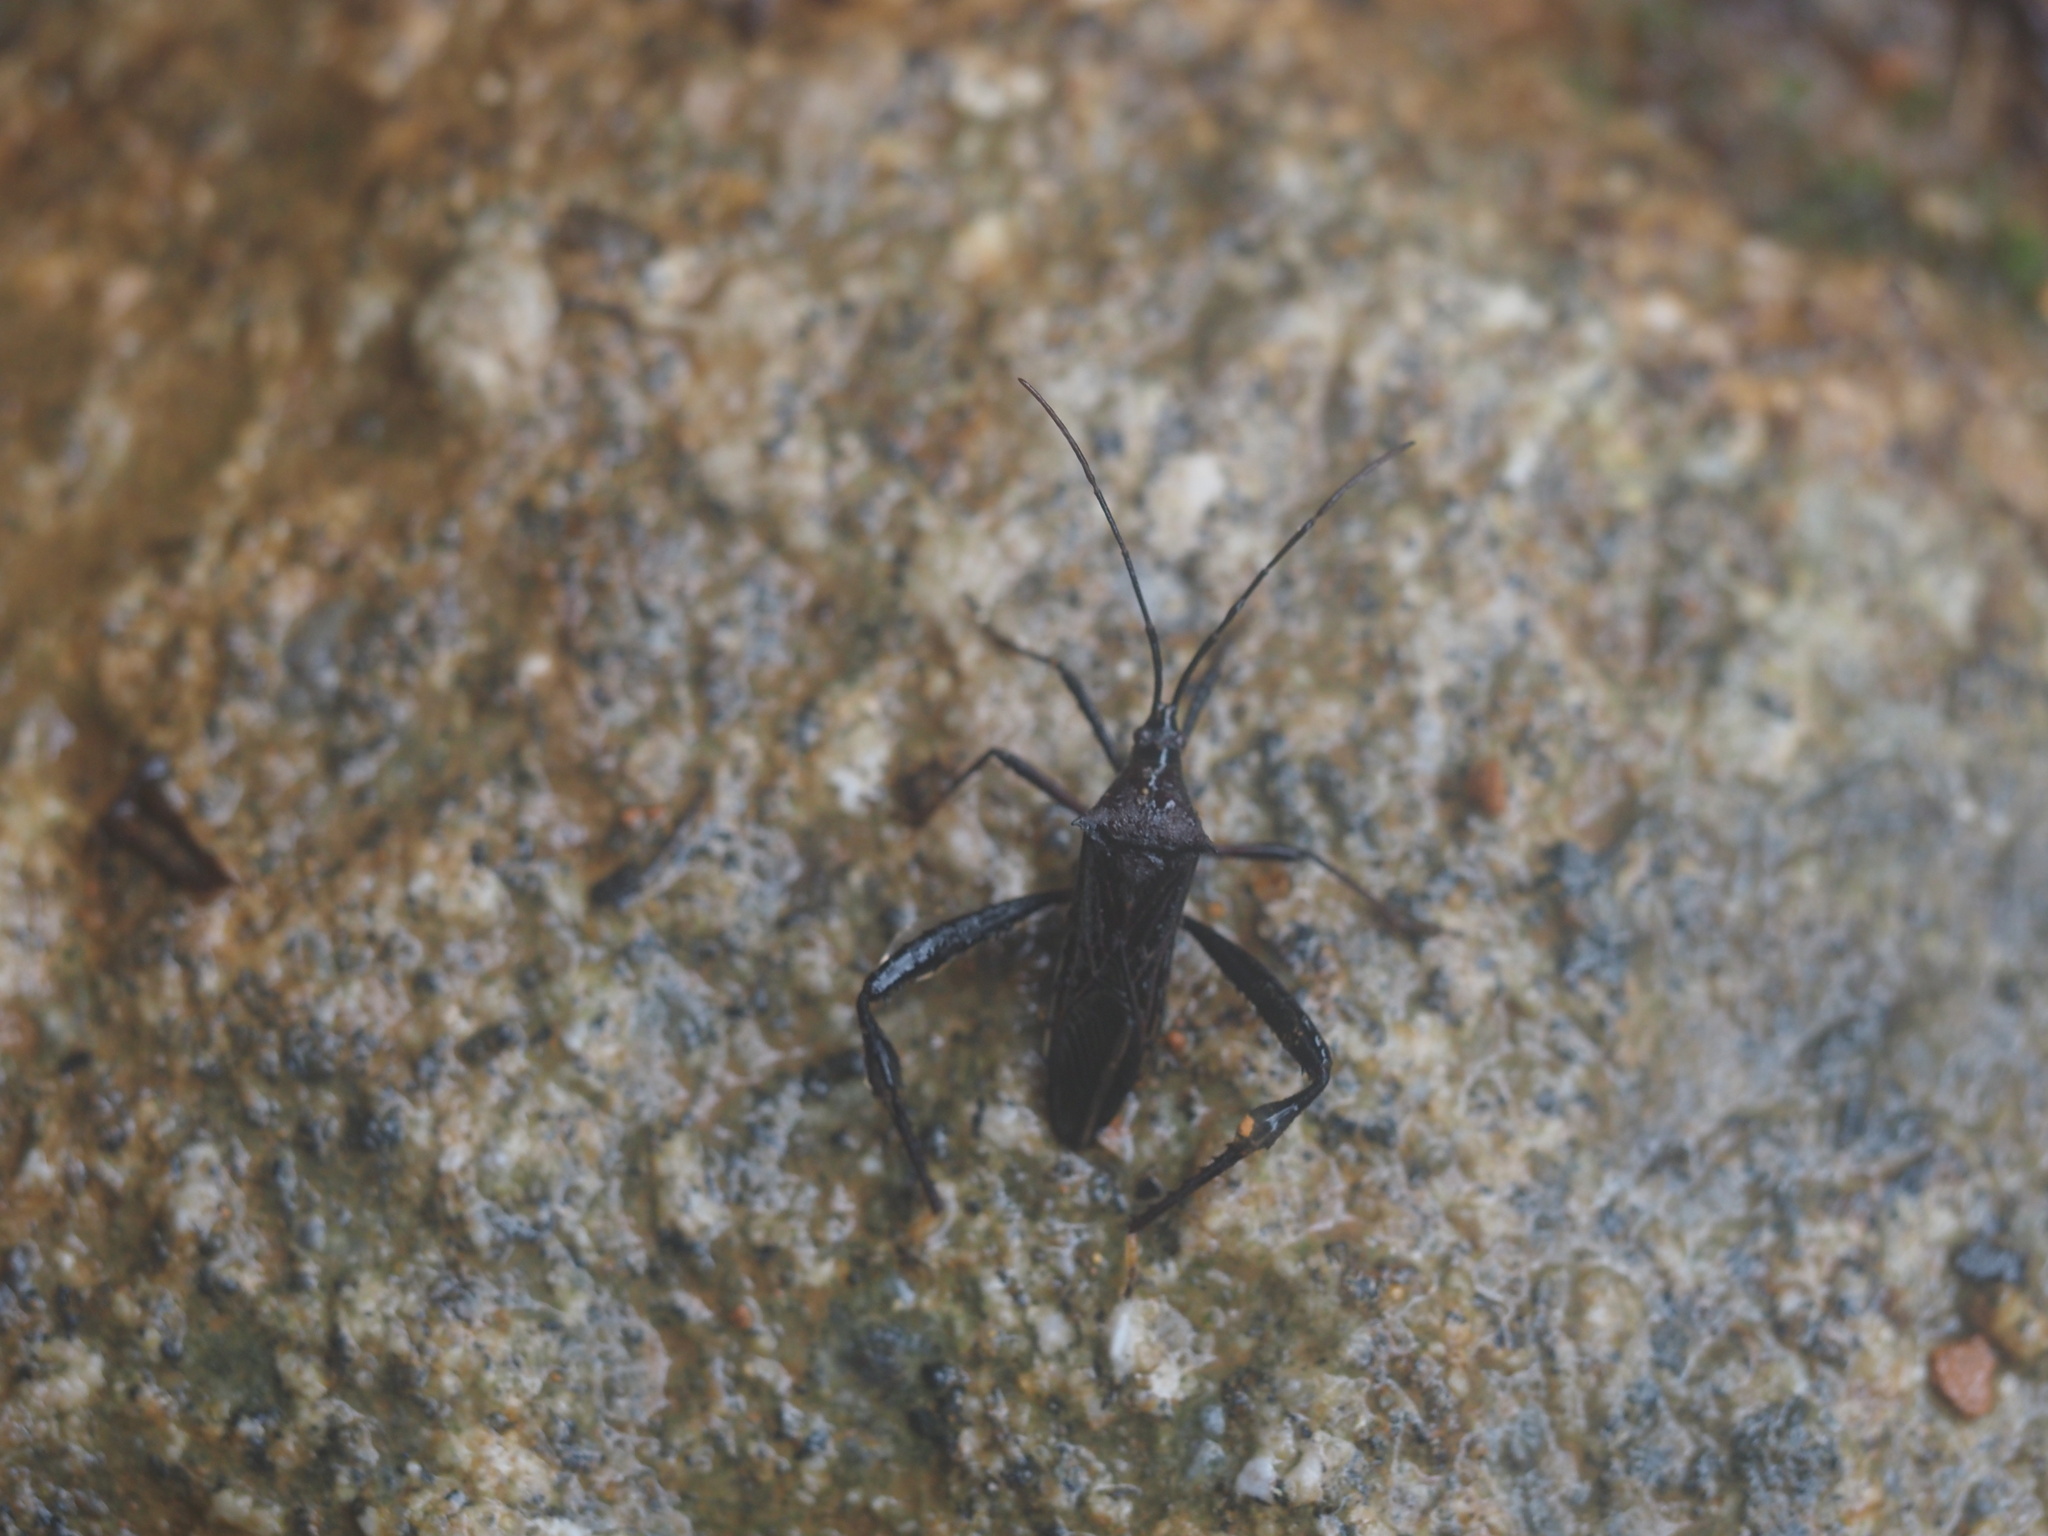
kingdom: Animalia
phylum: Arthropoda
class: Insecta
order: Hemiptera
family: Coreidae
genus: Stenometapodus
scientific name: Stenometapodus impictus
